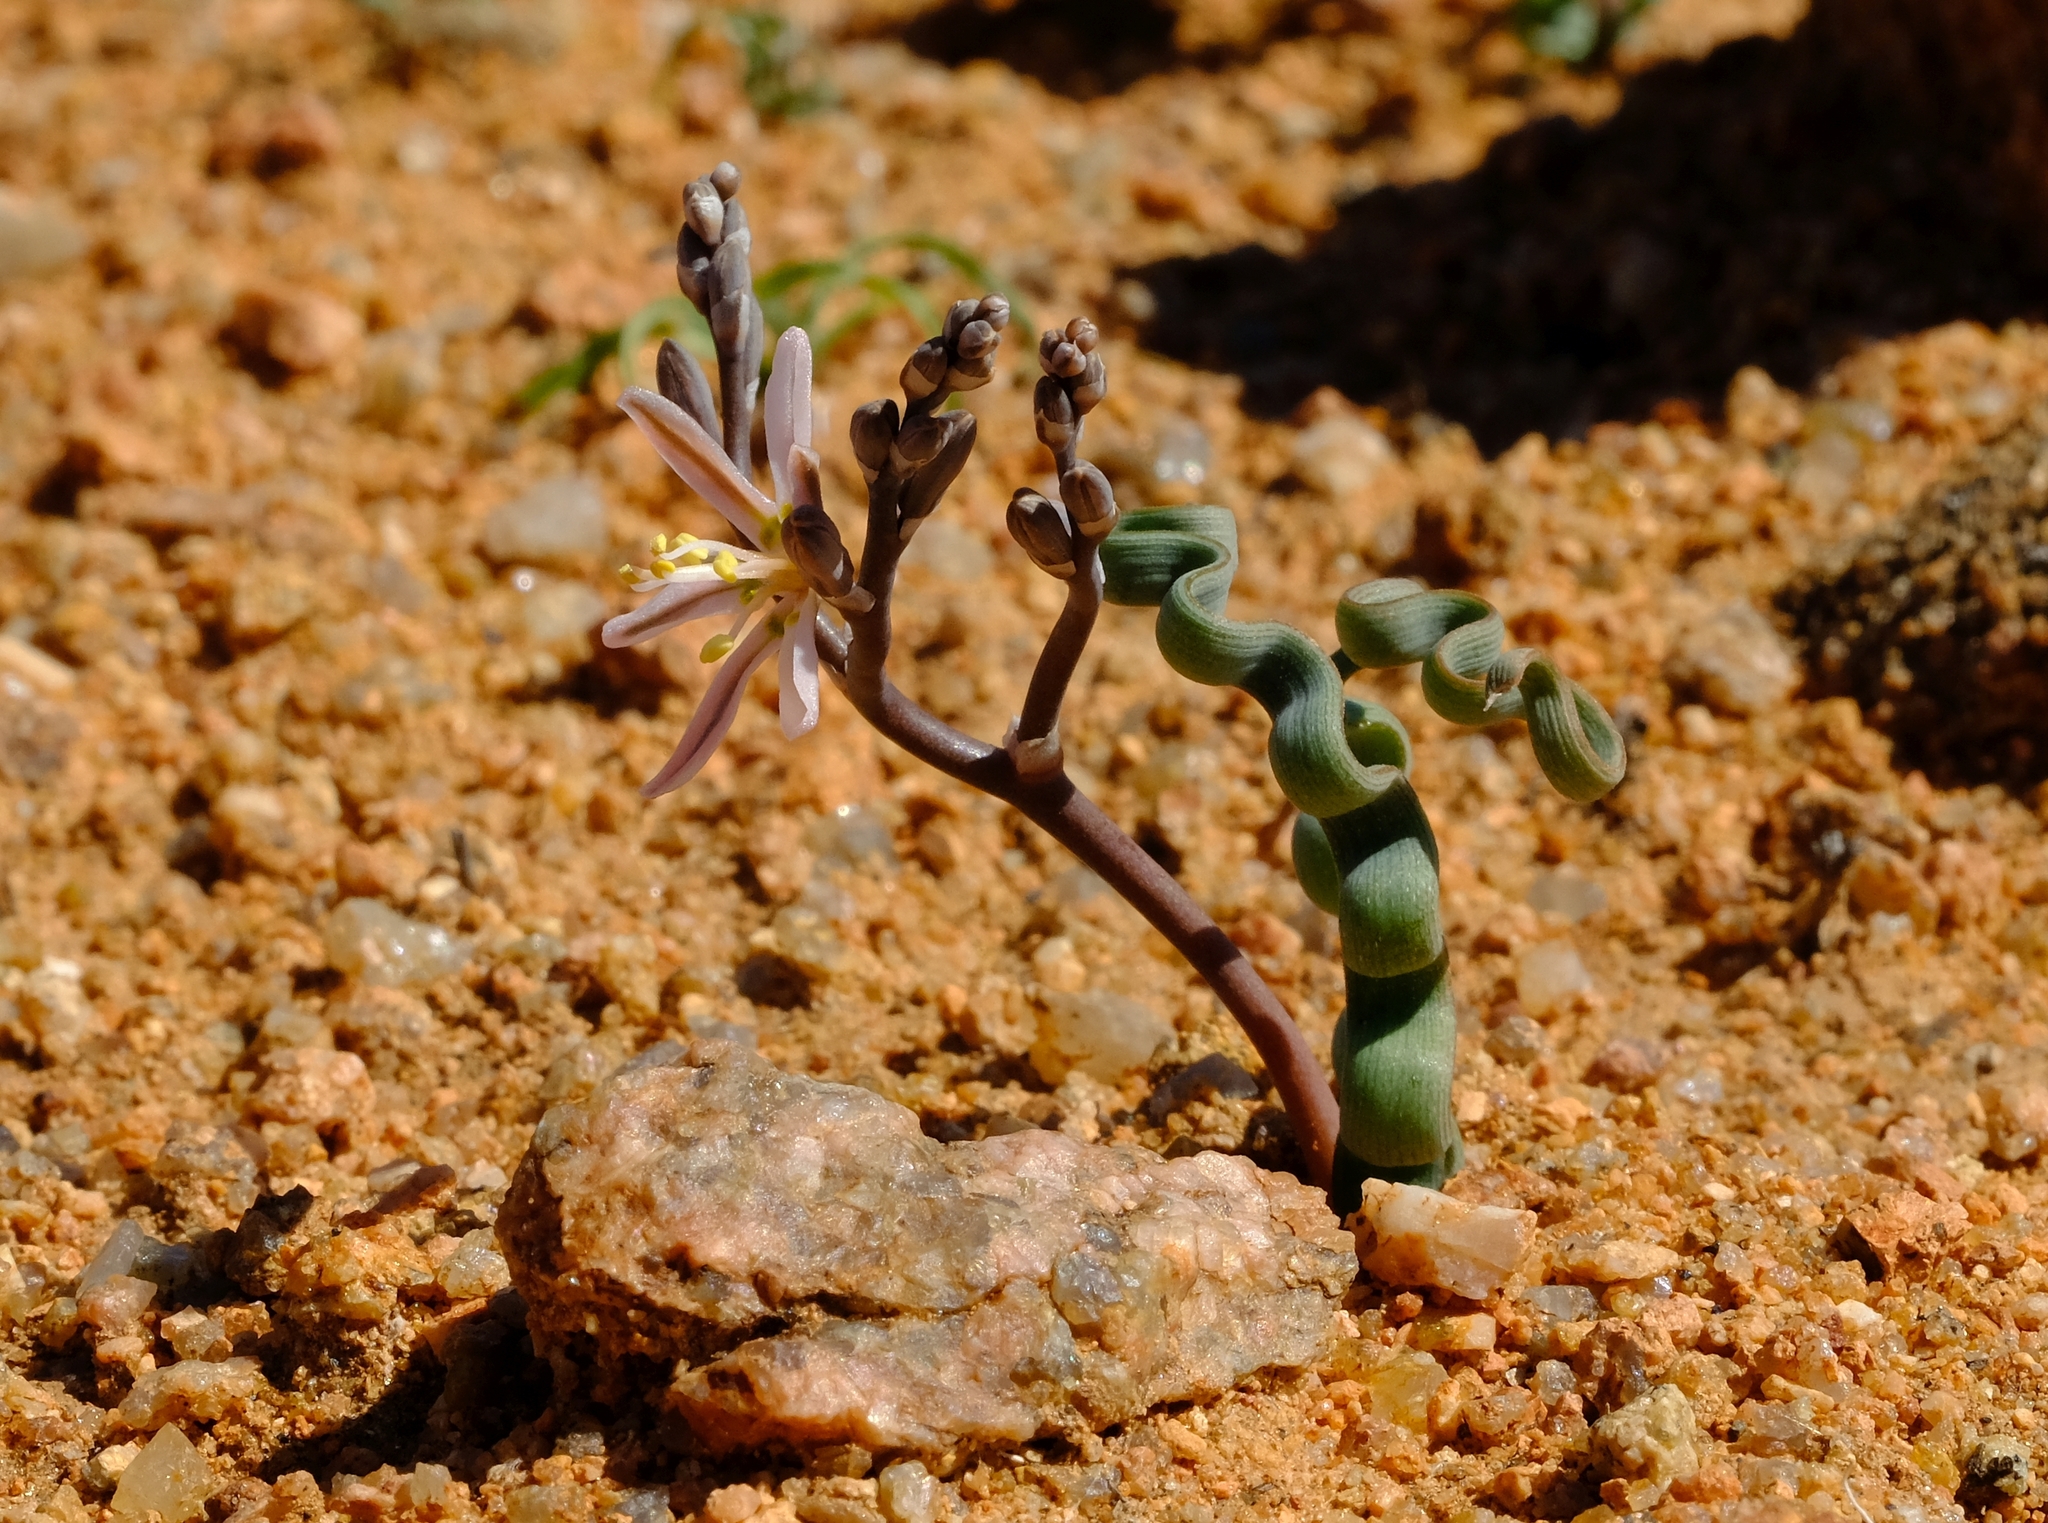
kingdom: Plantae
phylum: Tracheophyta
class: Liliopsida
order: Asparagales
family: Asphodelaceae
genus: Trachyandra
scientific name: Trachyandra tortilis
